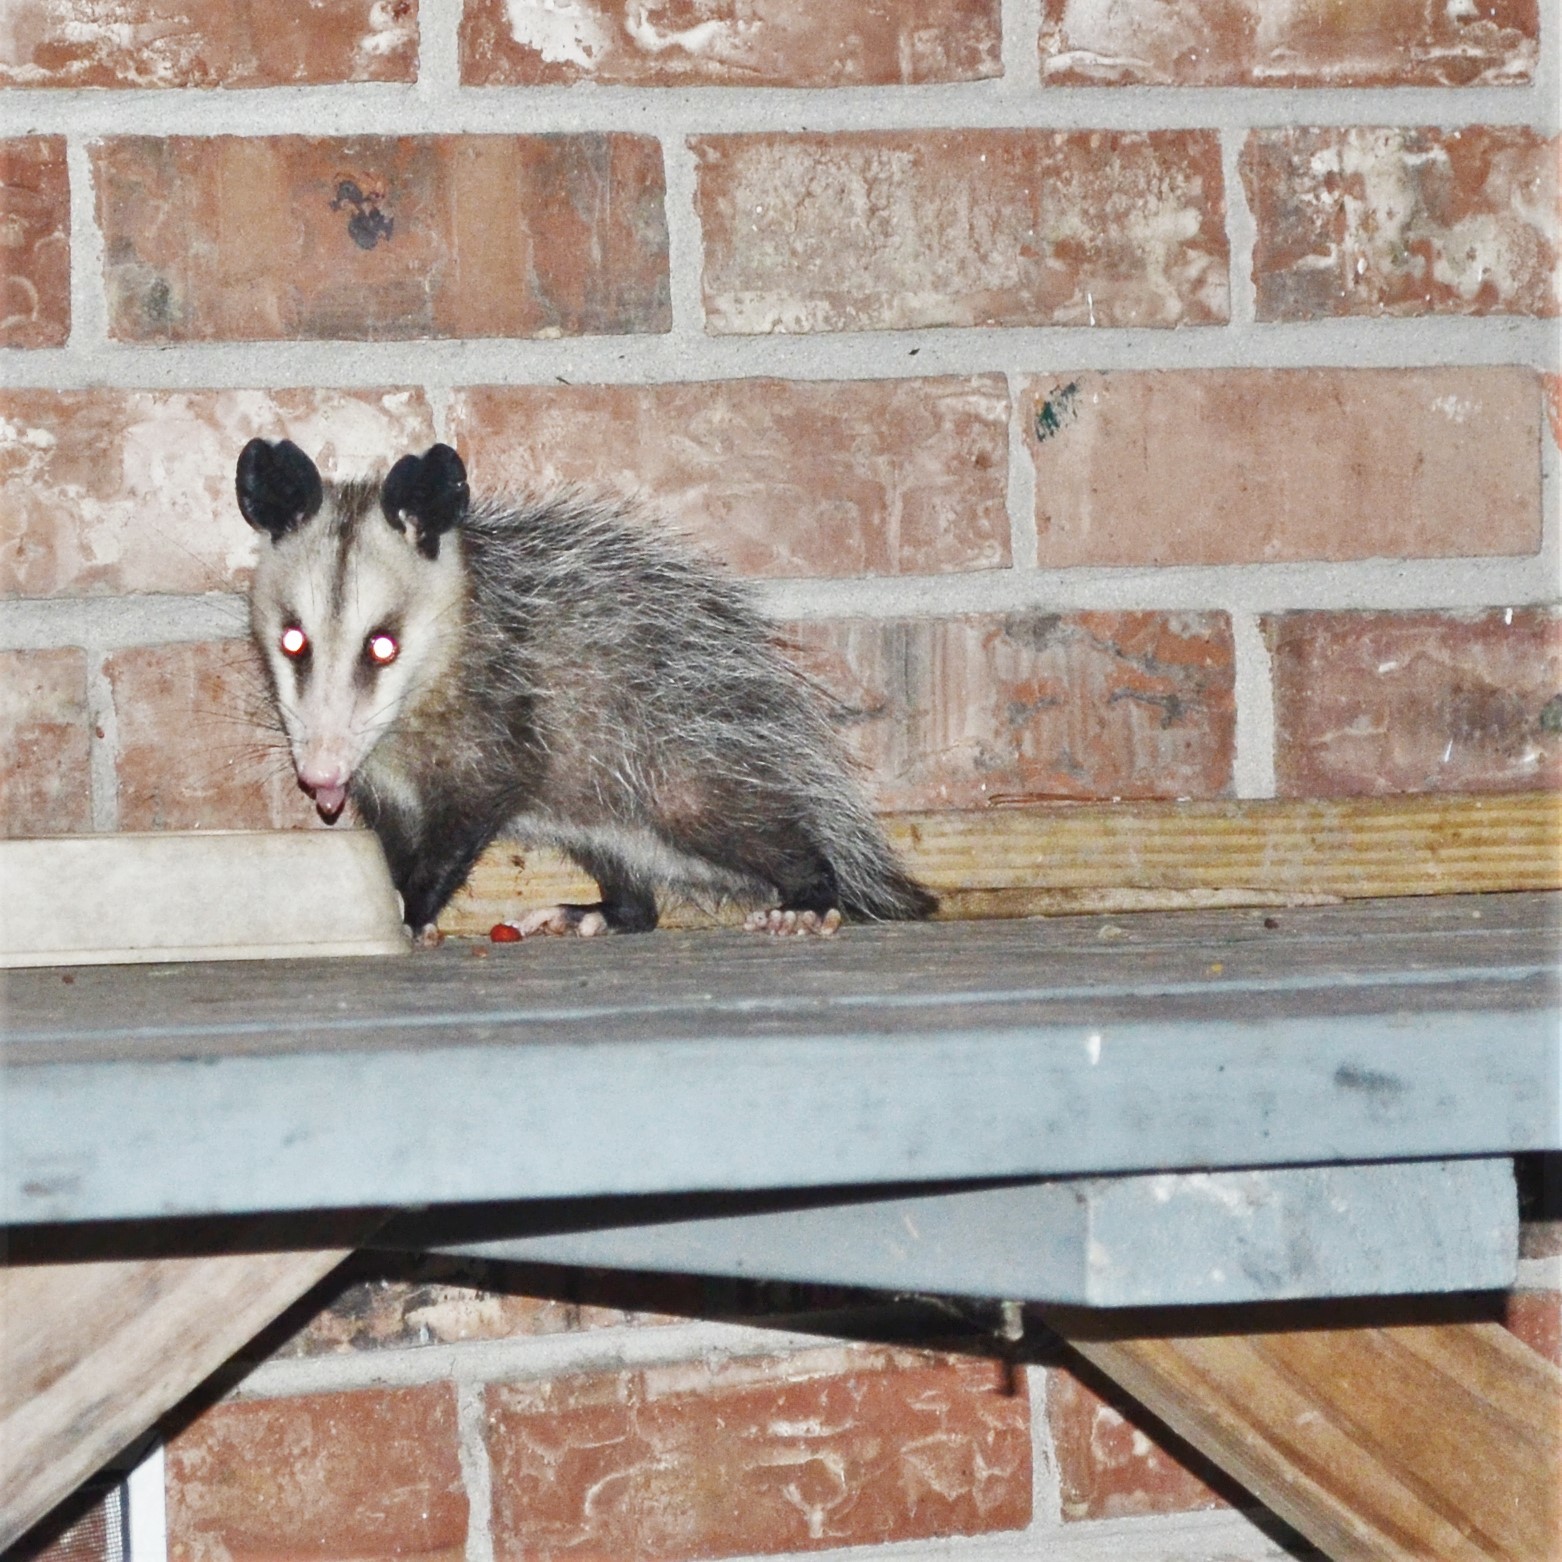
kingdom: Animalia
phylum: Chordata
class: Mammalia
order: Didelphimorphia
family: Didelphidae
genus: Didelphis
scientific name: Didelphis virginiana
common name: Virginia opossum
